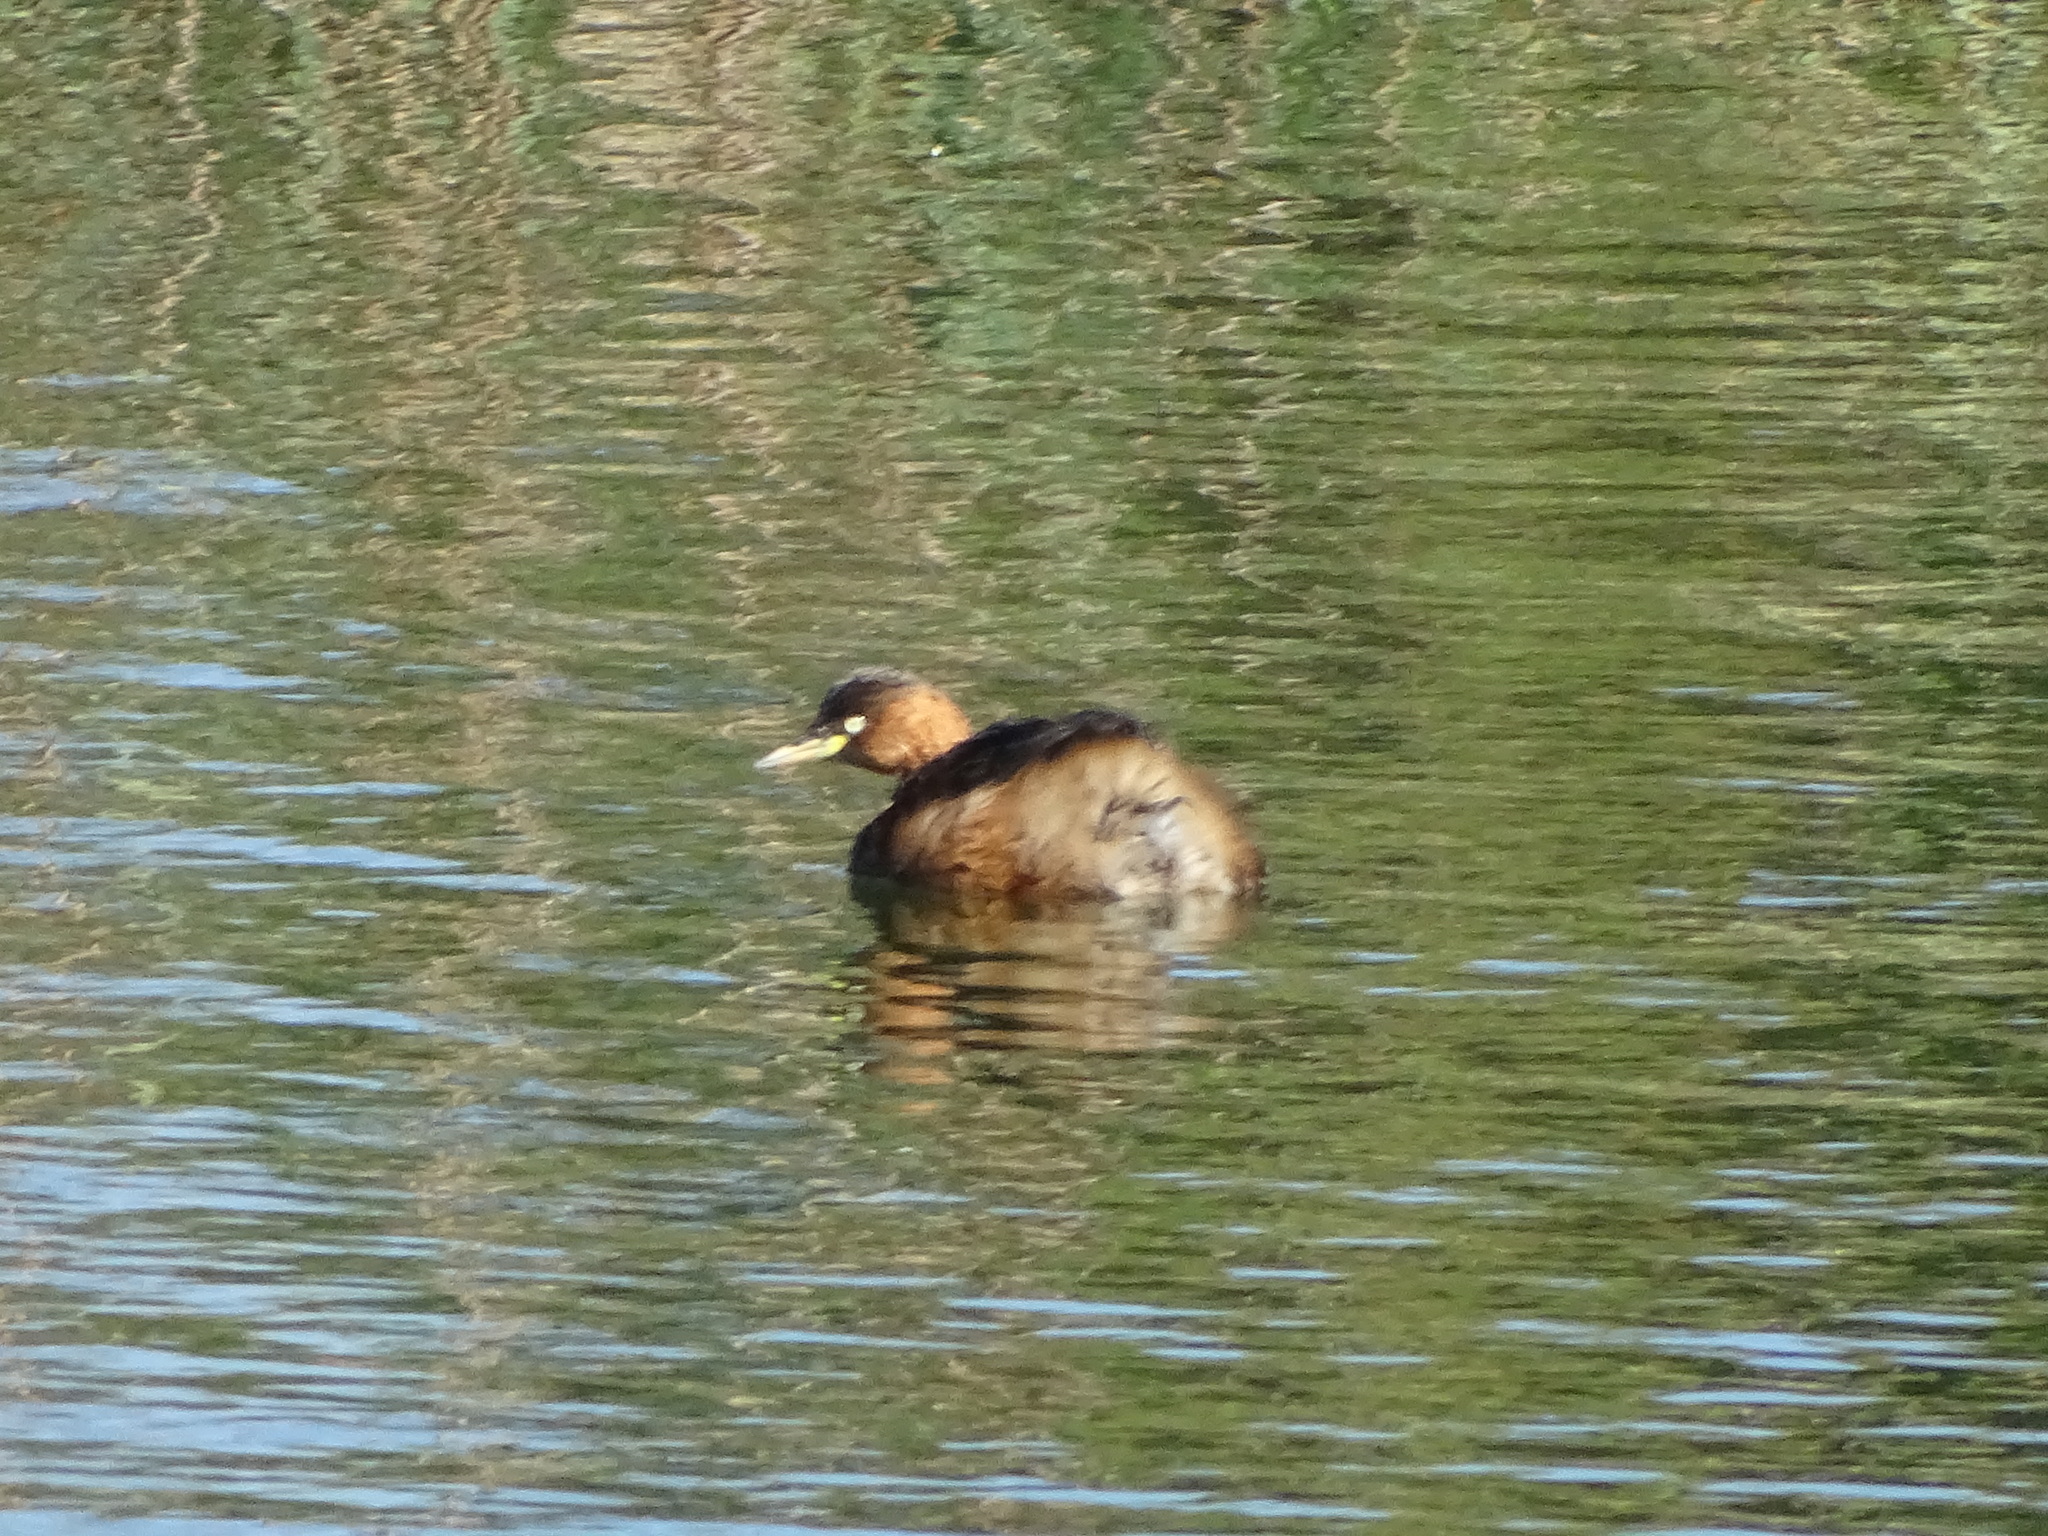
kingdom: Animalia
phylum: Chordata
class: Aves
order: Podicipediformes
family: Podicipedidae
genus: Tachybaptus
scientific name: Tachybaptus ruficollis
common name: Little grebe
